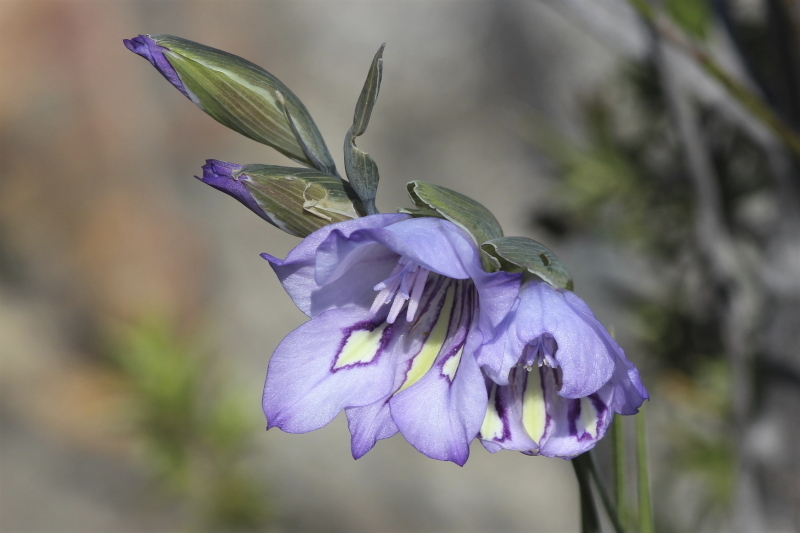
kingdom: Plantae
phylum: Tracheophyta
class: Liliopsida
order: Asparagales
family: Iridaceae
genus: Gladiolus
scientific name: Gladiolus inflatus
